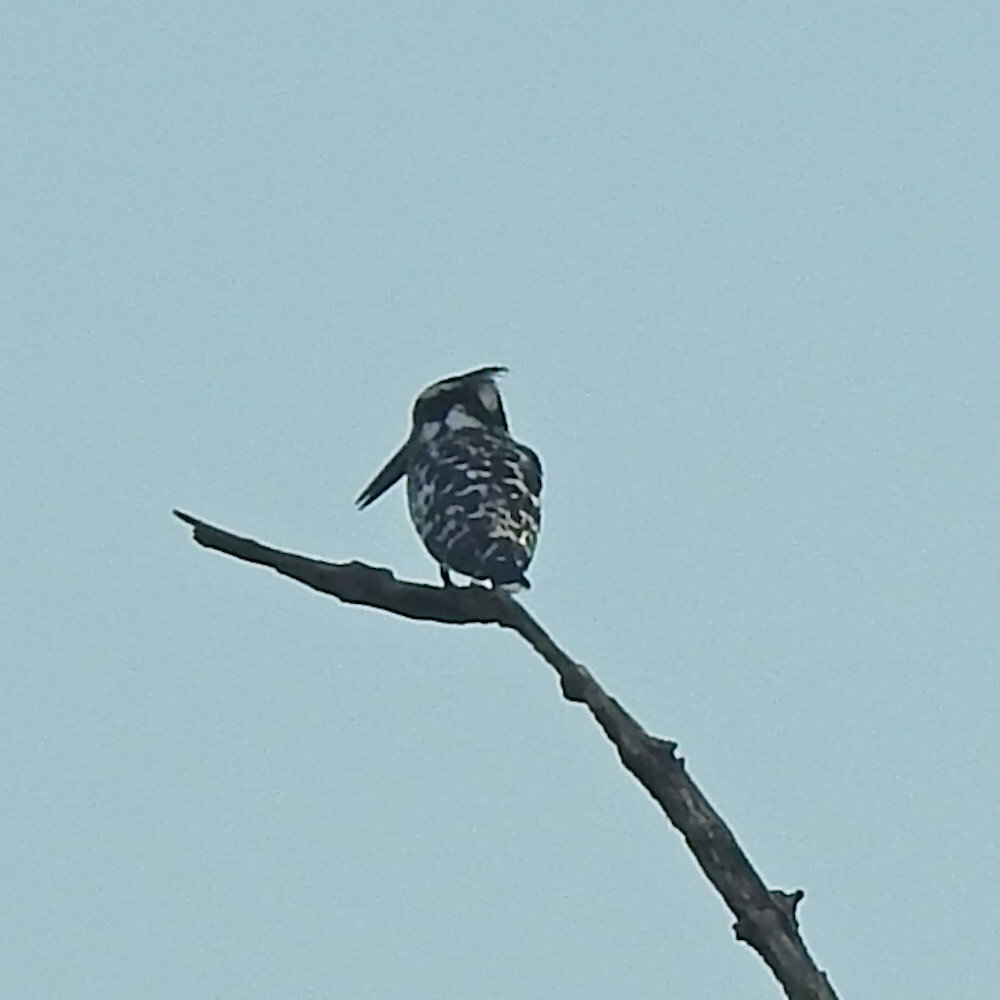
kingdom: Animalia
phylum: Chordata
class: Aves
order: Coraciiformes
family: Alcedinidae
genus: Ceryle
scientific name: Ceryle rudis
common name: Pied kingfisher
